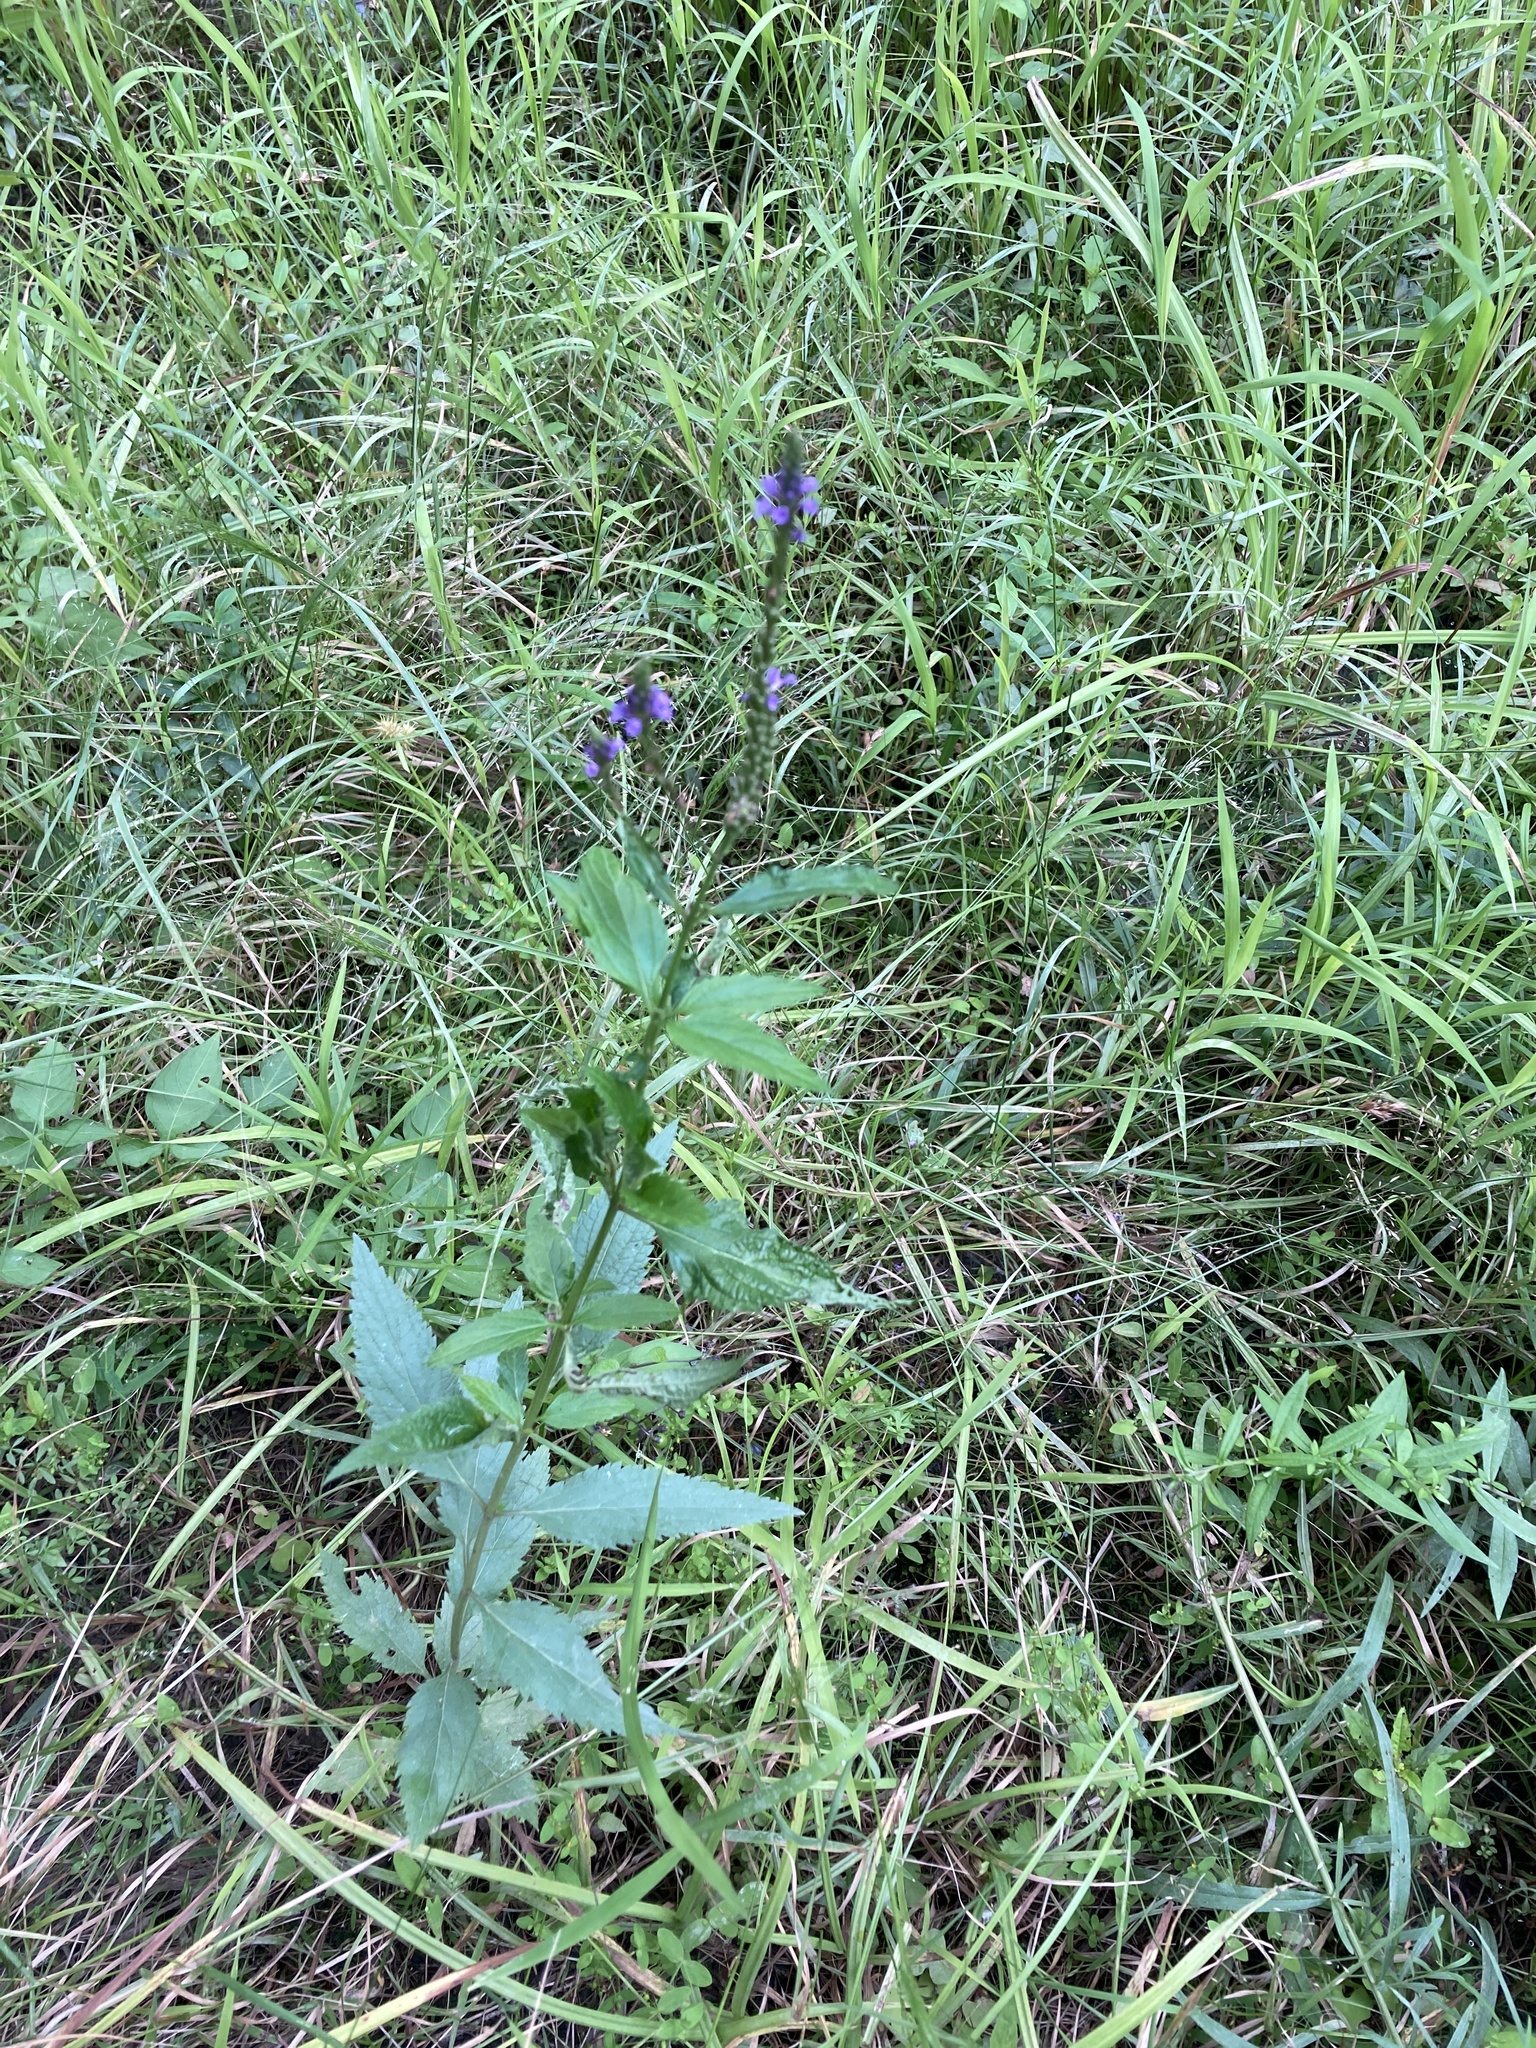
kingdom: Plantae
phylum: Tracheophyta
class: Magnoliopsida
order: Lamiales
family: Verbenaceae
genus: Verbena
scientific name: Verbena hastata
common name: American blue vervain
